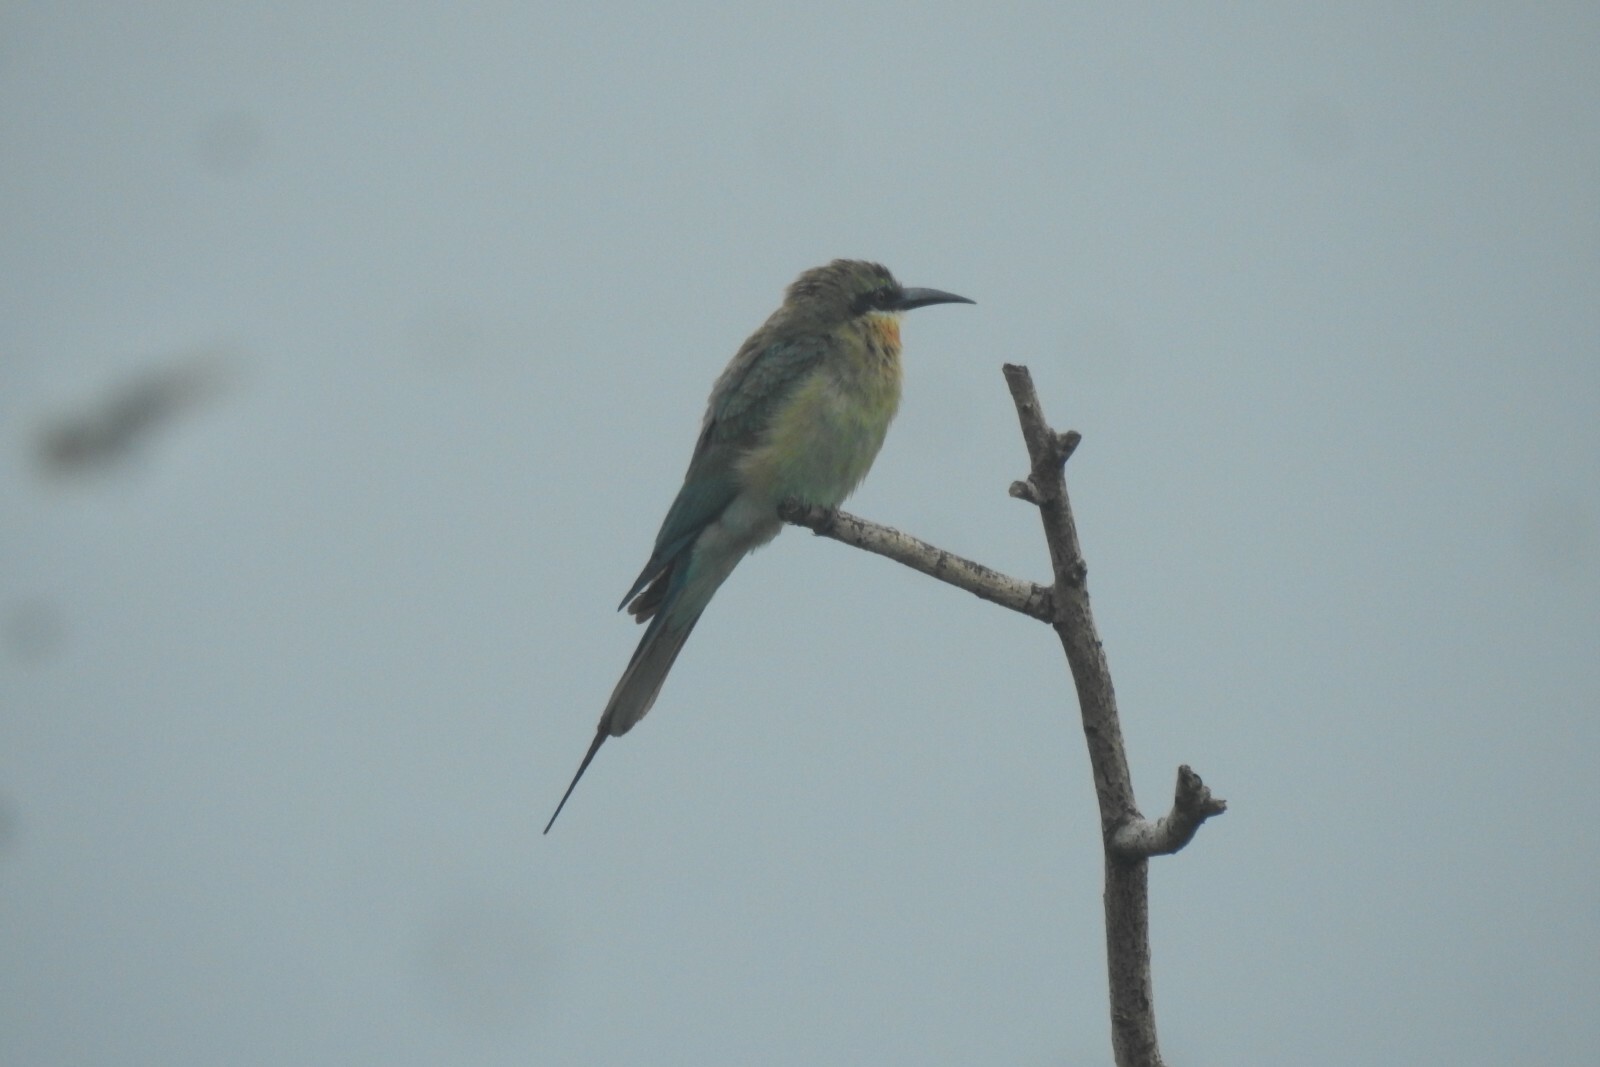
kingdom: Animalia
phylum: Chordata
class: Aves
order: Coraciiformes
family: Meropidae
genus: Merops
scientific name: Merops philippinus
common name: Blue-tailed bee-eater
